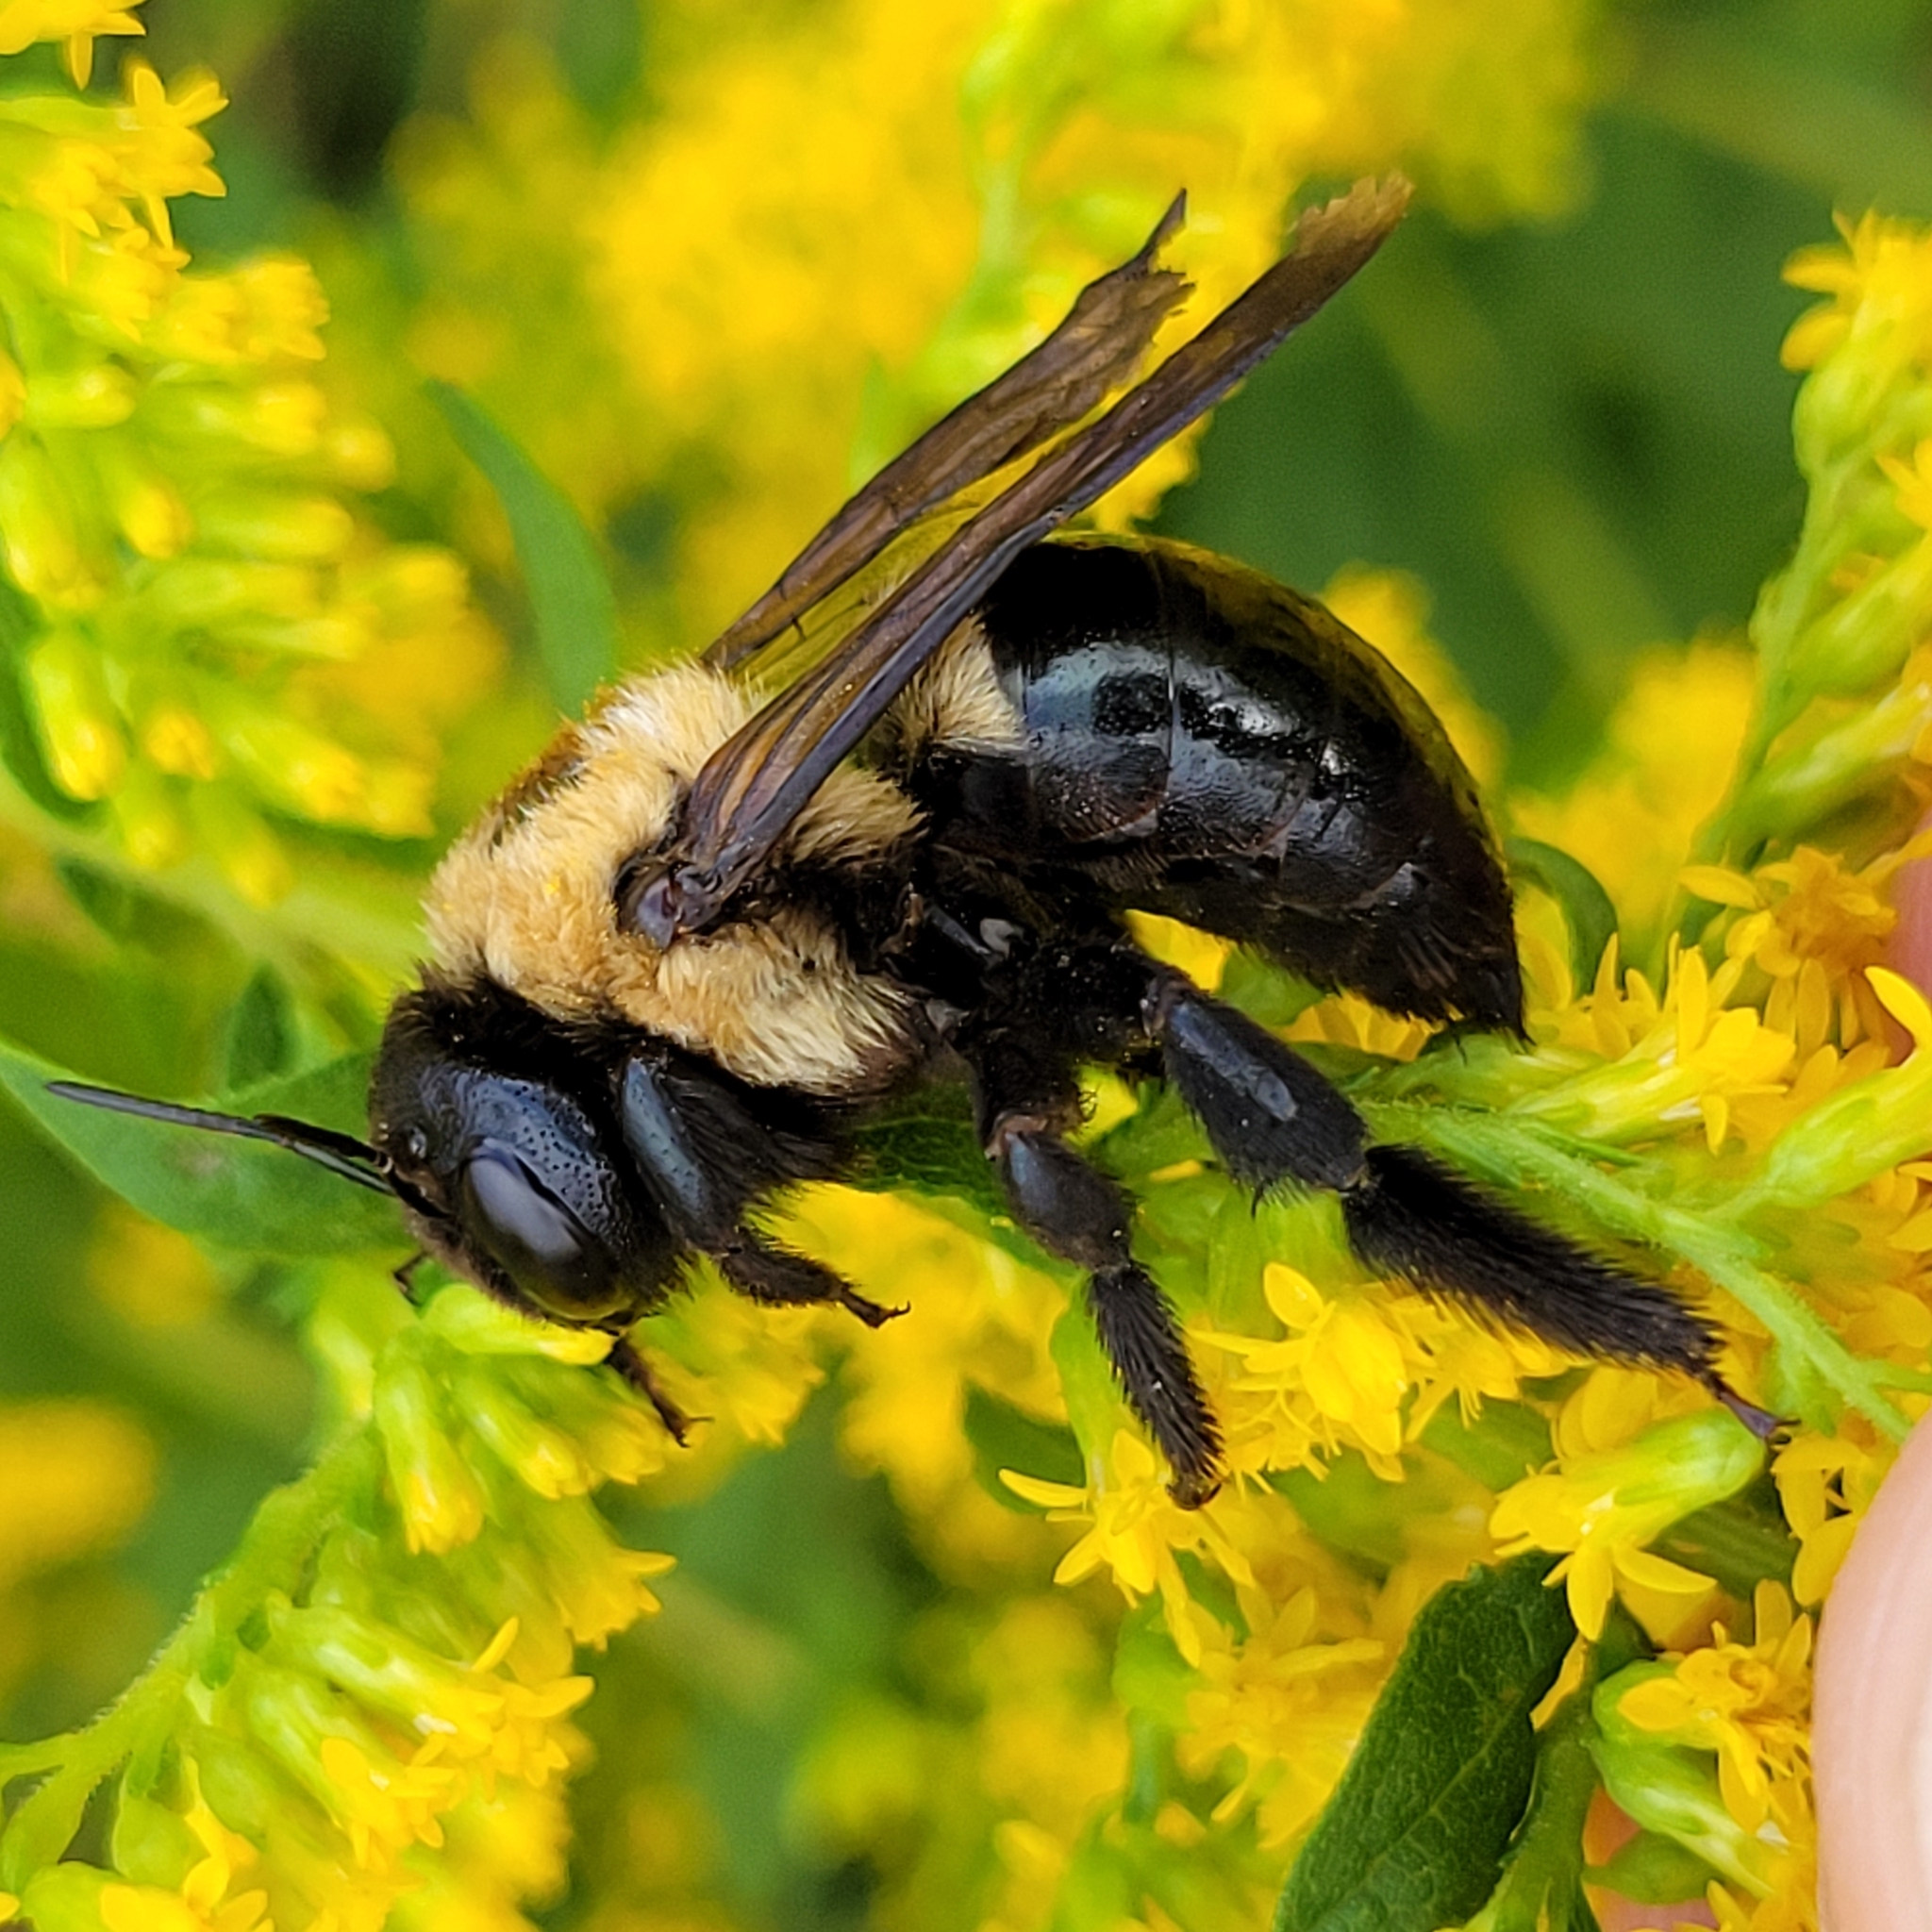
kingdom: Animalia
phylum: Arthropoda
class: Insecta
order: Hymenoptera
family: Apidae
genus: Xylocopa
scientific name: Xylocopa virginica
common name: Carpenter bee
